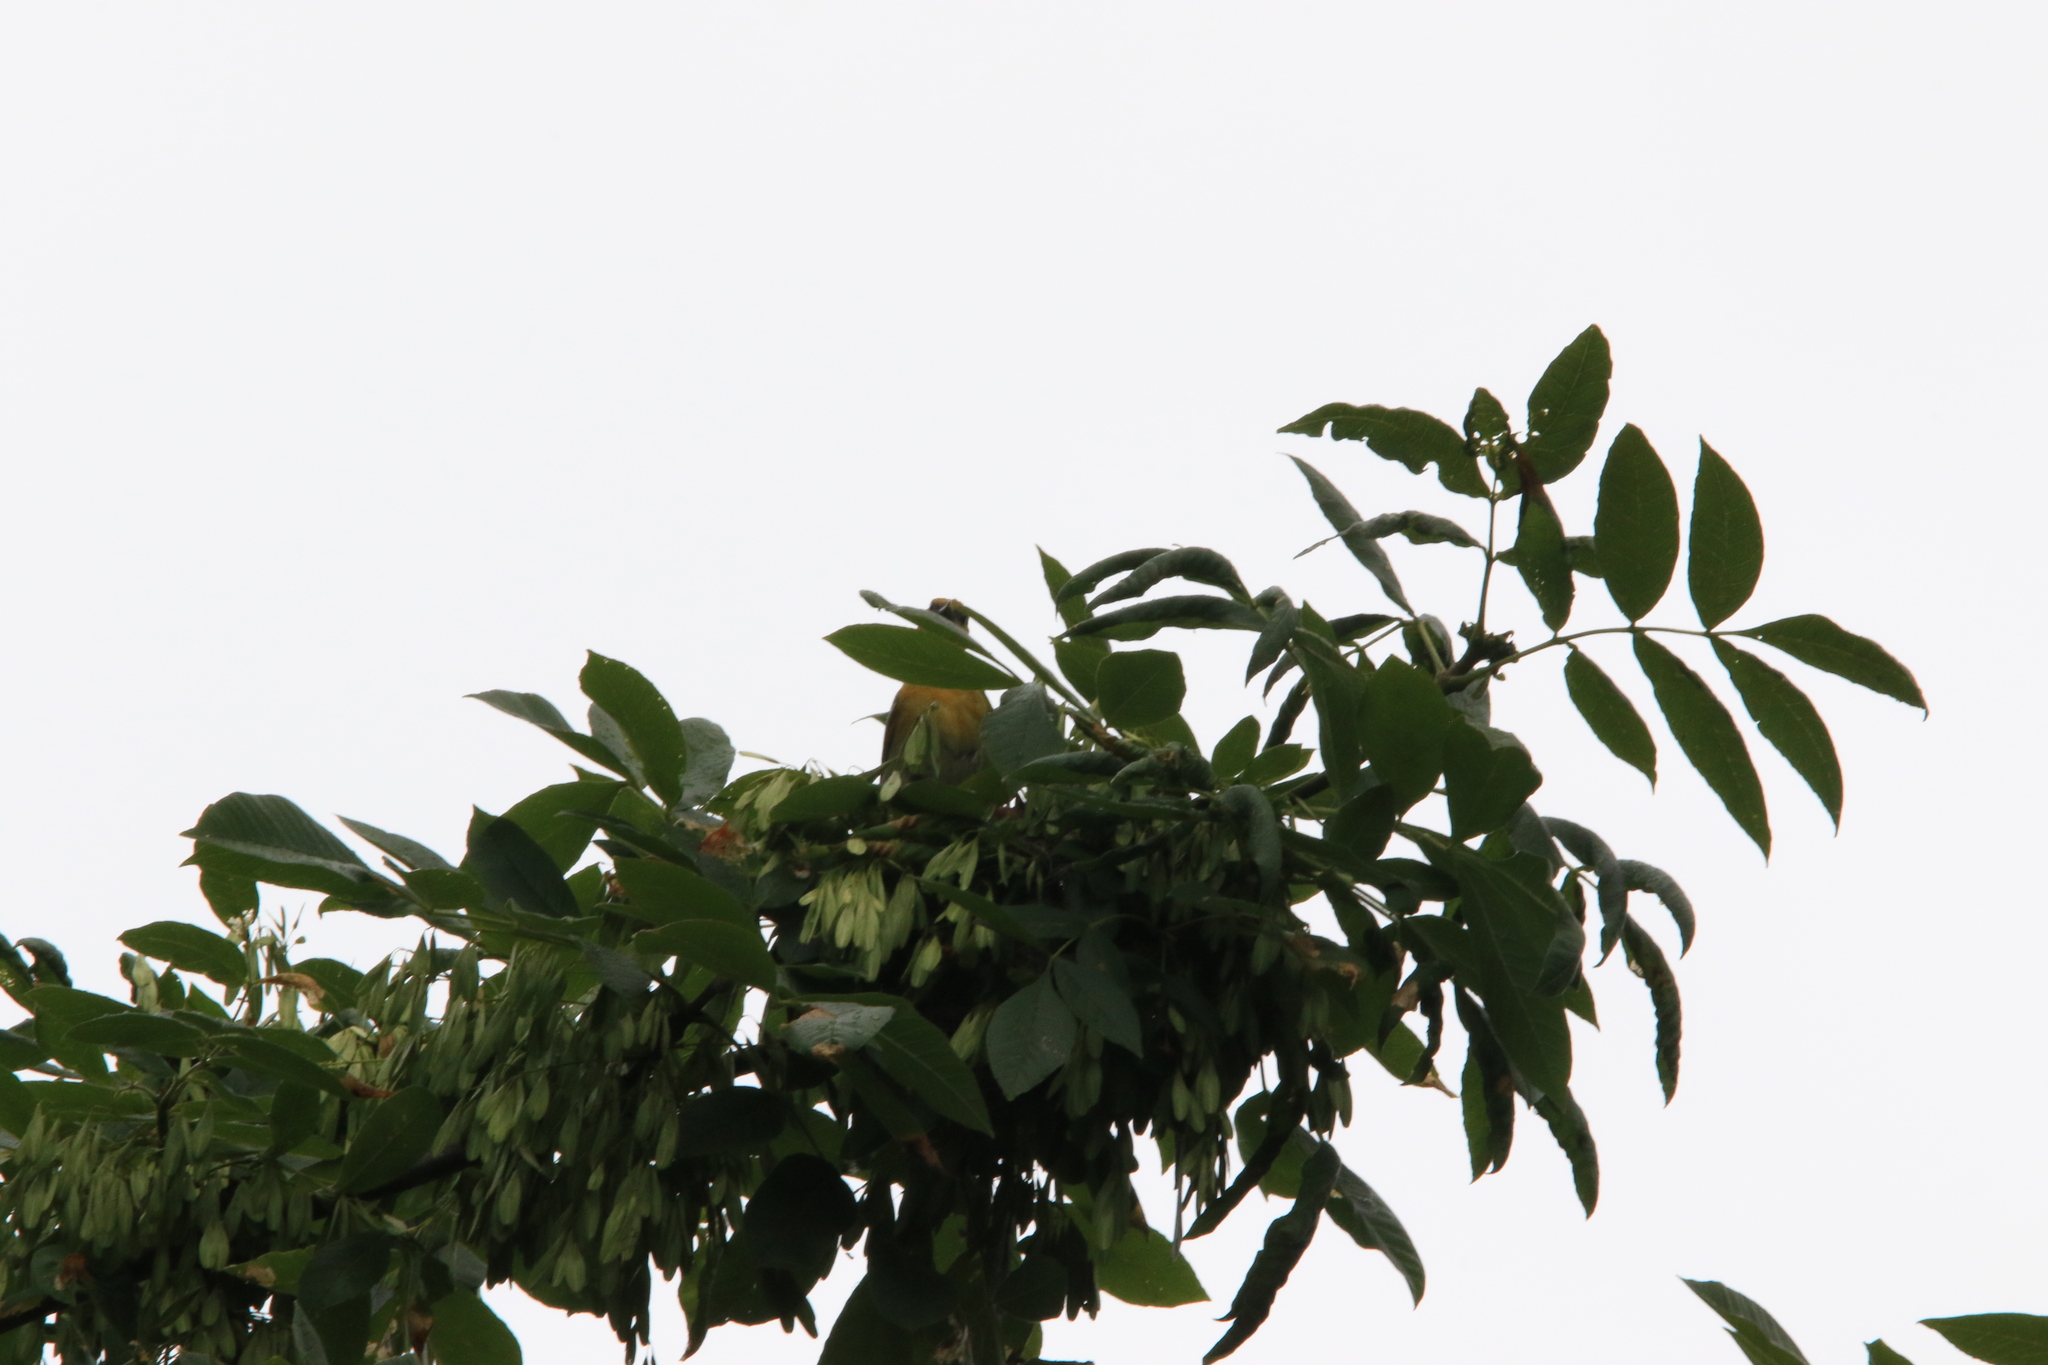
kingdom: Animalia
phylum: Chordata
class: Aves
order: Passeriformes
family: Icteridae
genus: Icterus
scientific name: Icterus bullockii
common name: Bullock's oriole
